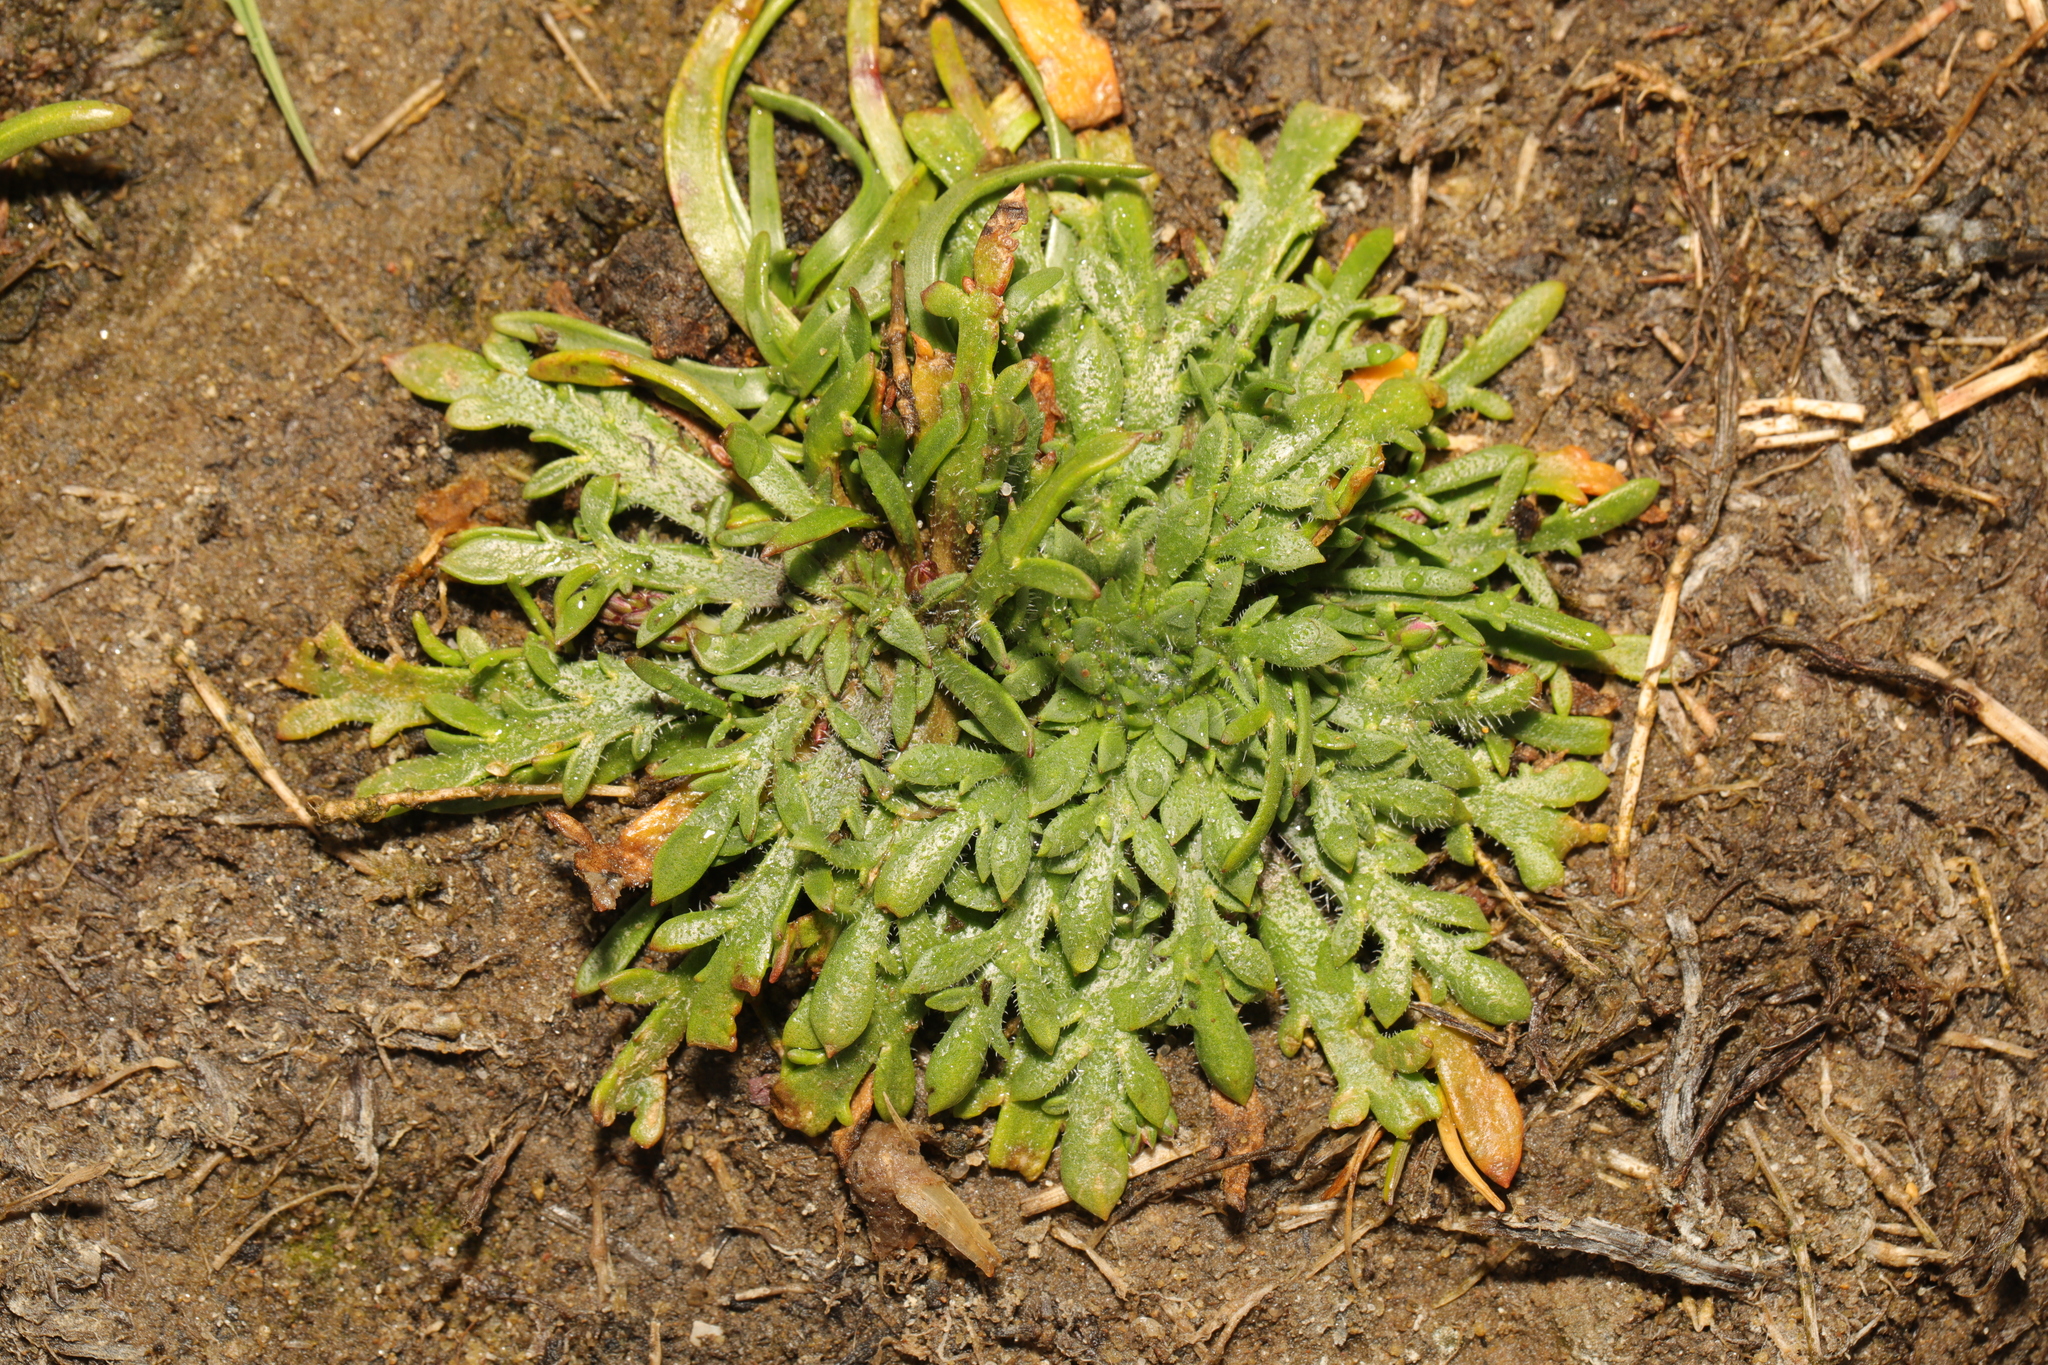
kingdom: Plantae
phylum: Tracheophyta
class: Magnoliopsida
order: Lamiales
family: Plantaginaceae
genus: Plantago
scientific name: Plantago coronopus
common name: Buck's-horn plantain
